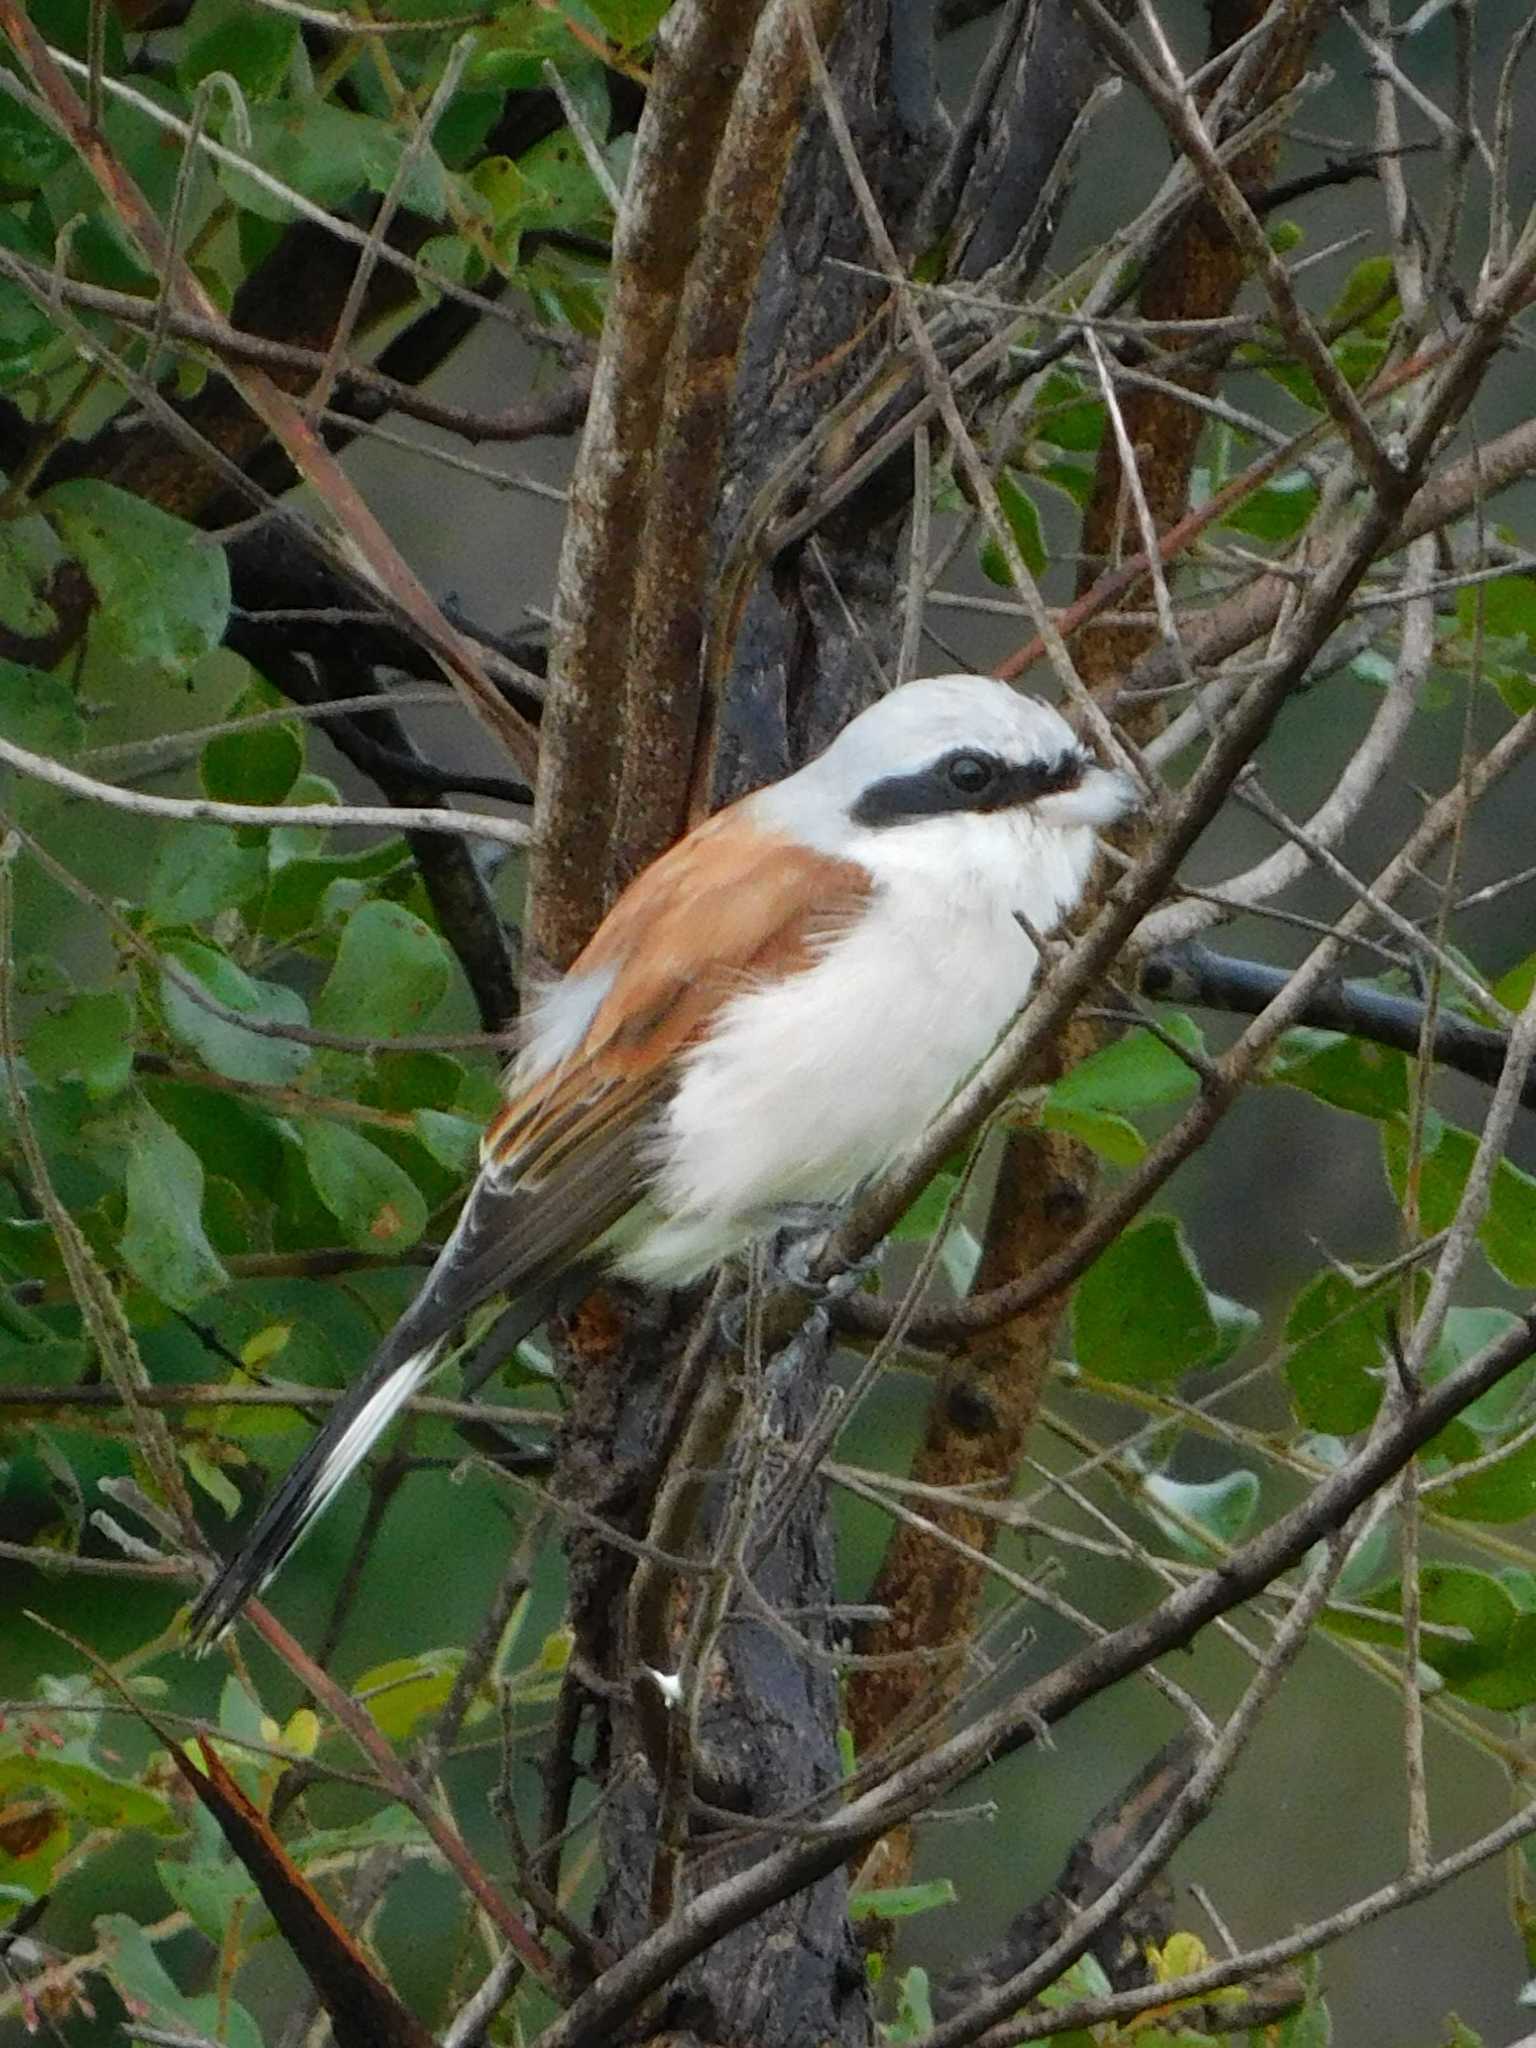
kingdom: Animalia
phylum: Chordata
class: Aves
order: Passeriformes
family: Laniidae
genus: Lanius
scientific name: Lanius collurio
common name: Red-backed shrike
